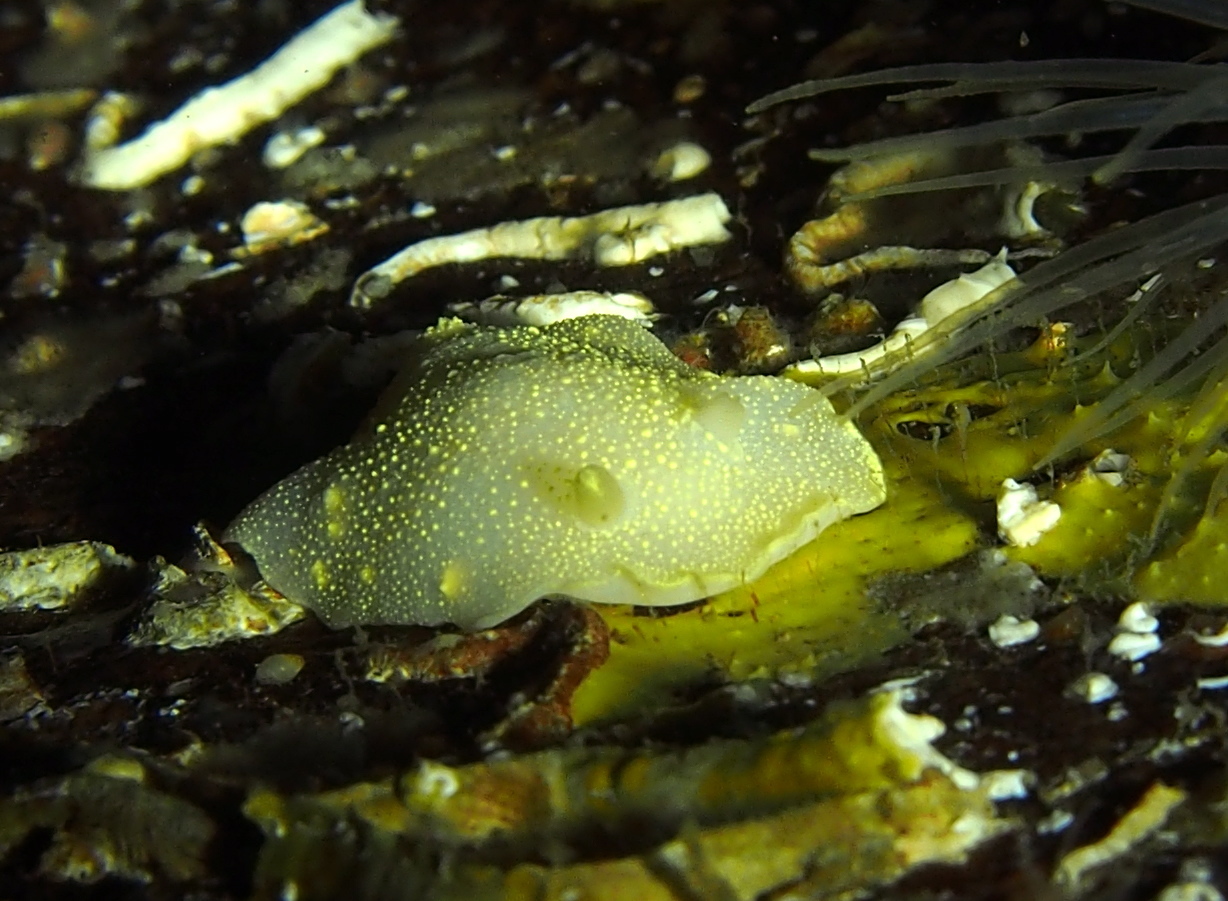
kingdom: Animalia
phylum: Mollusca
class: Gastropoda
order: Nudibranchia
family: Cadlinidae
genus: Cadlina
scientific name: Cadlina laevis
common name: White atlantic cadlina
